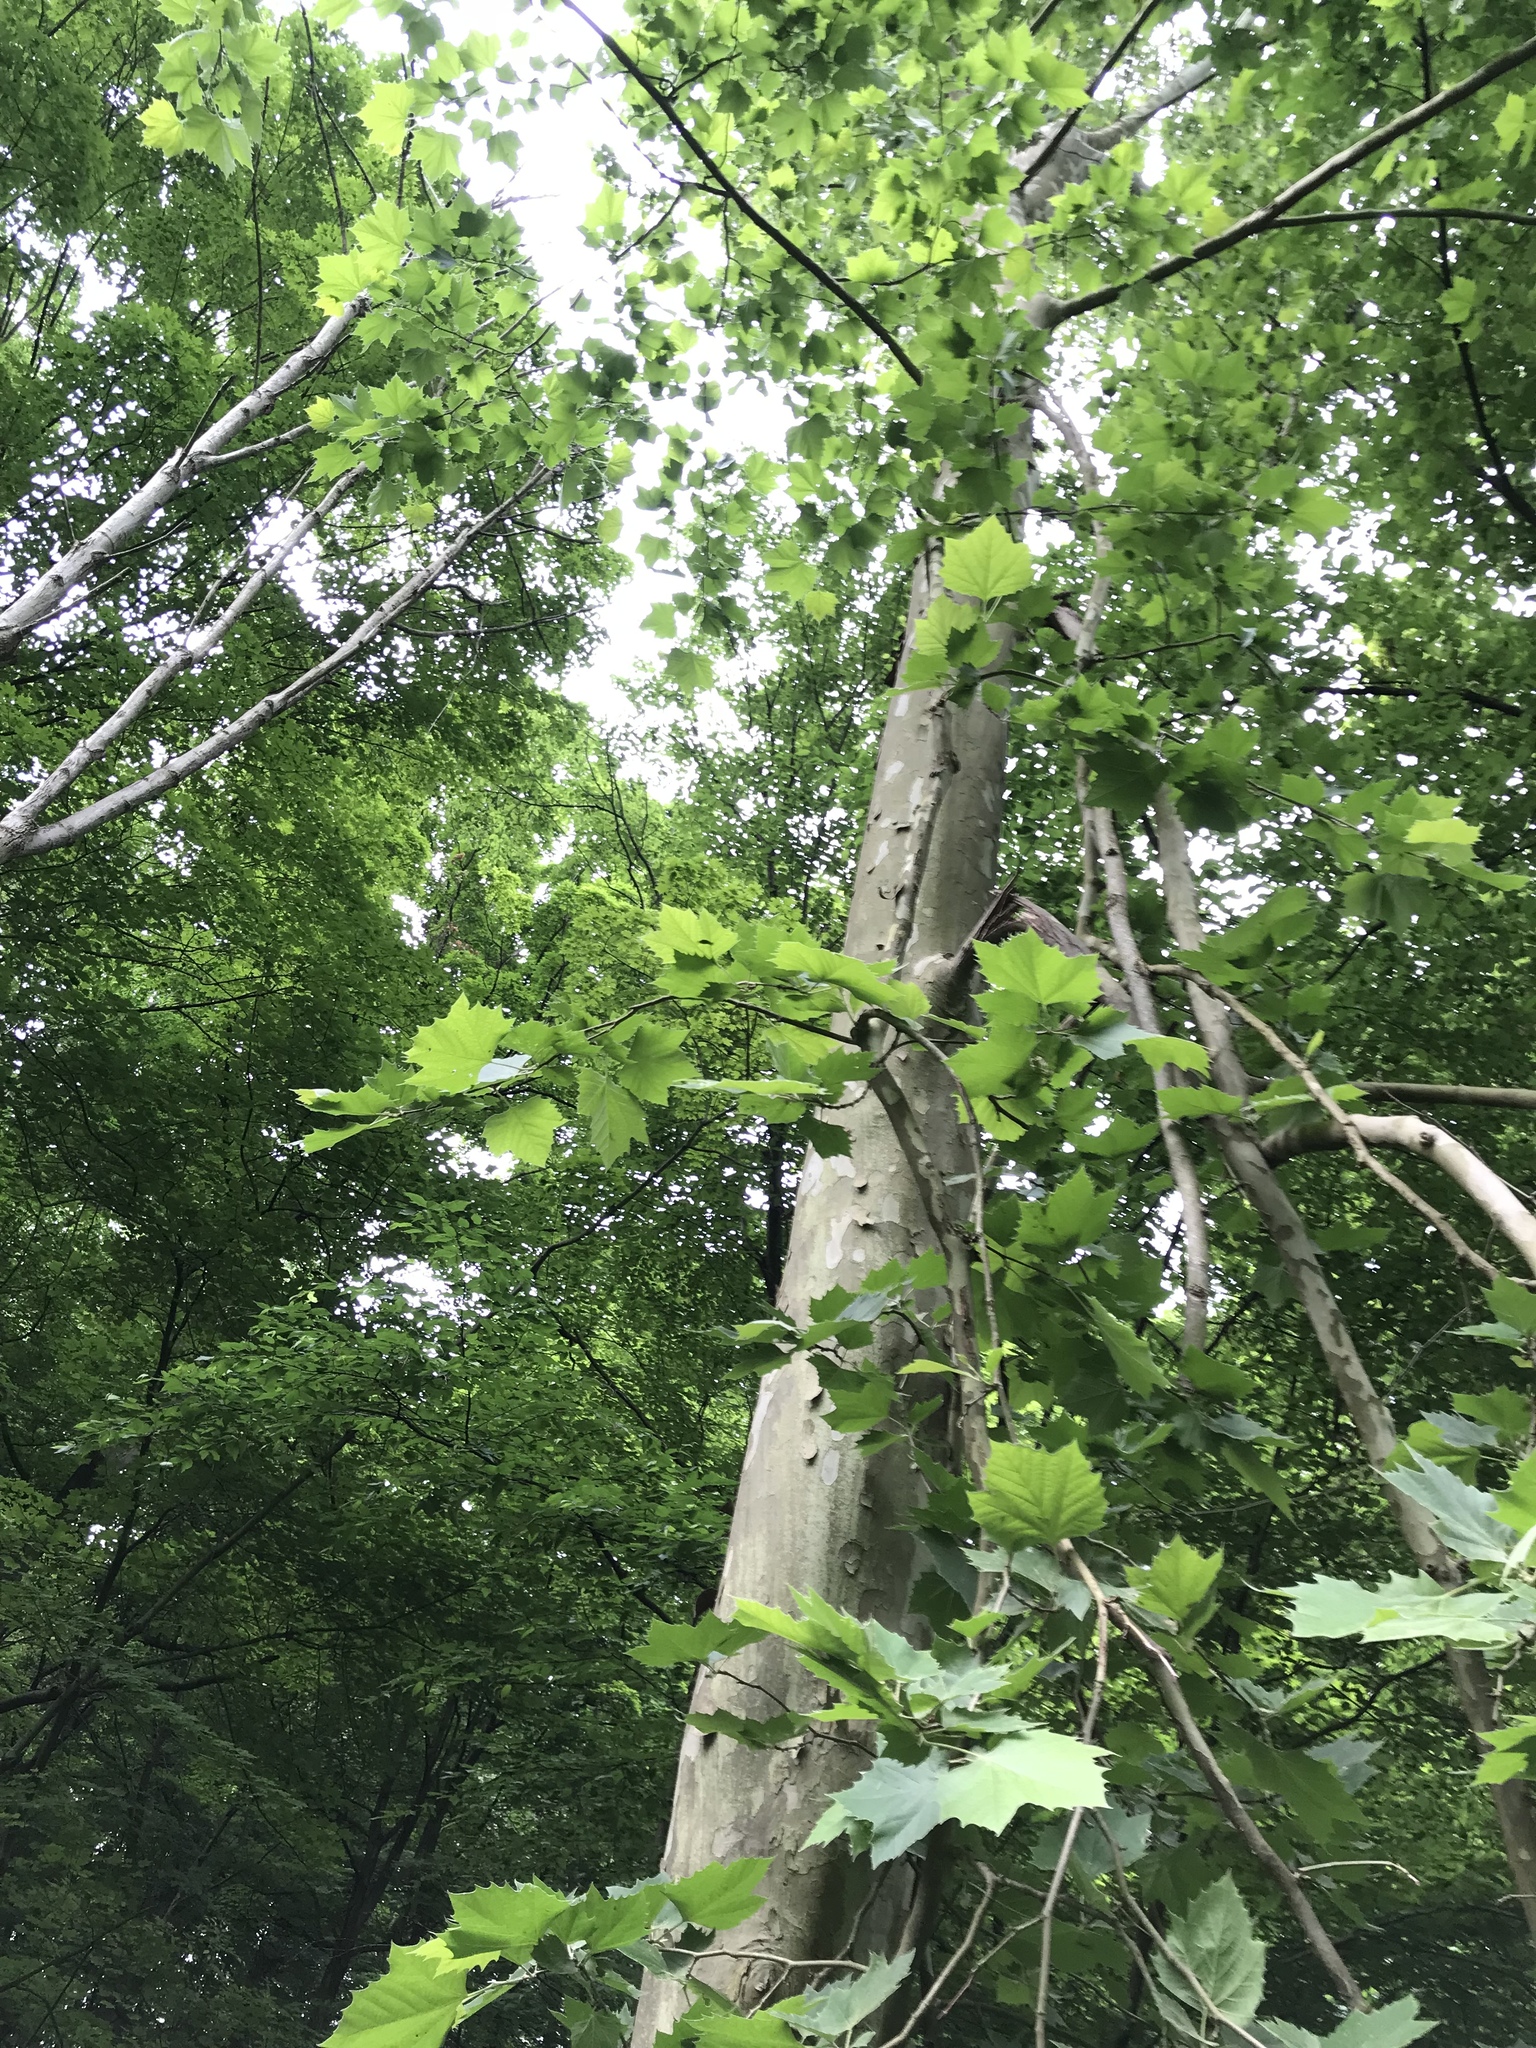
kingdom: Plantae
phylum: Tracheophyta
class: Magnoliopsida
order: Proteales
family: Platanaceae
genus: Platanus
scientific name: Platanus occidentalis
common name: American sycamore
